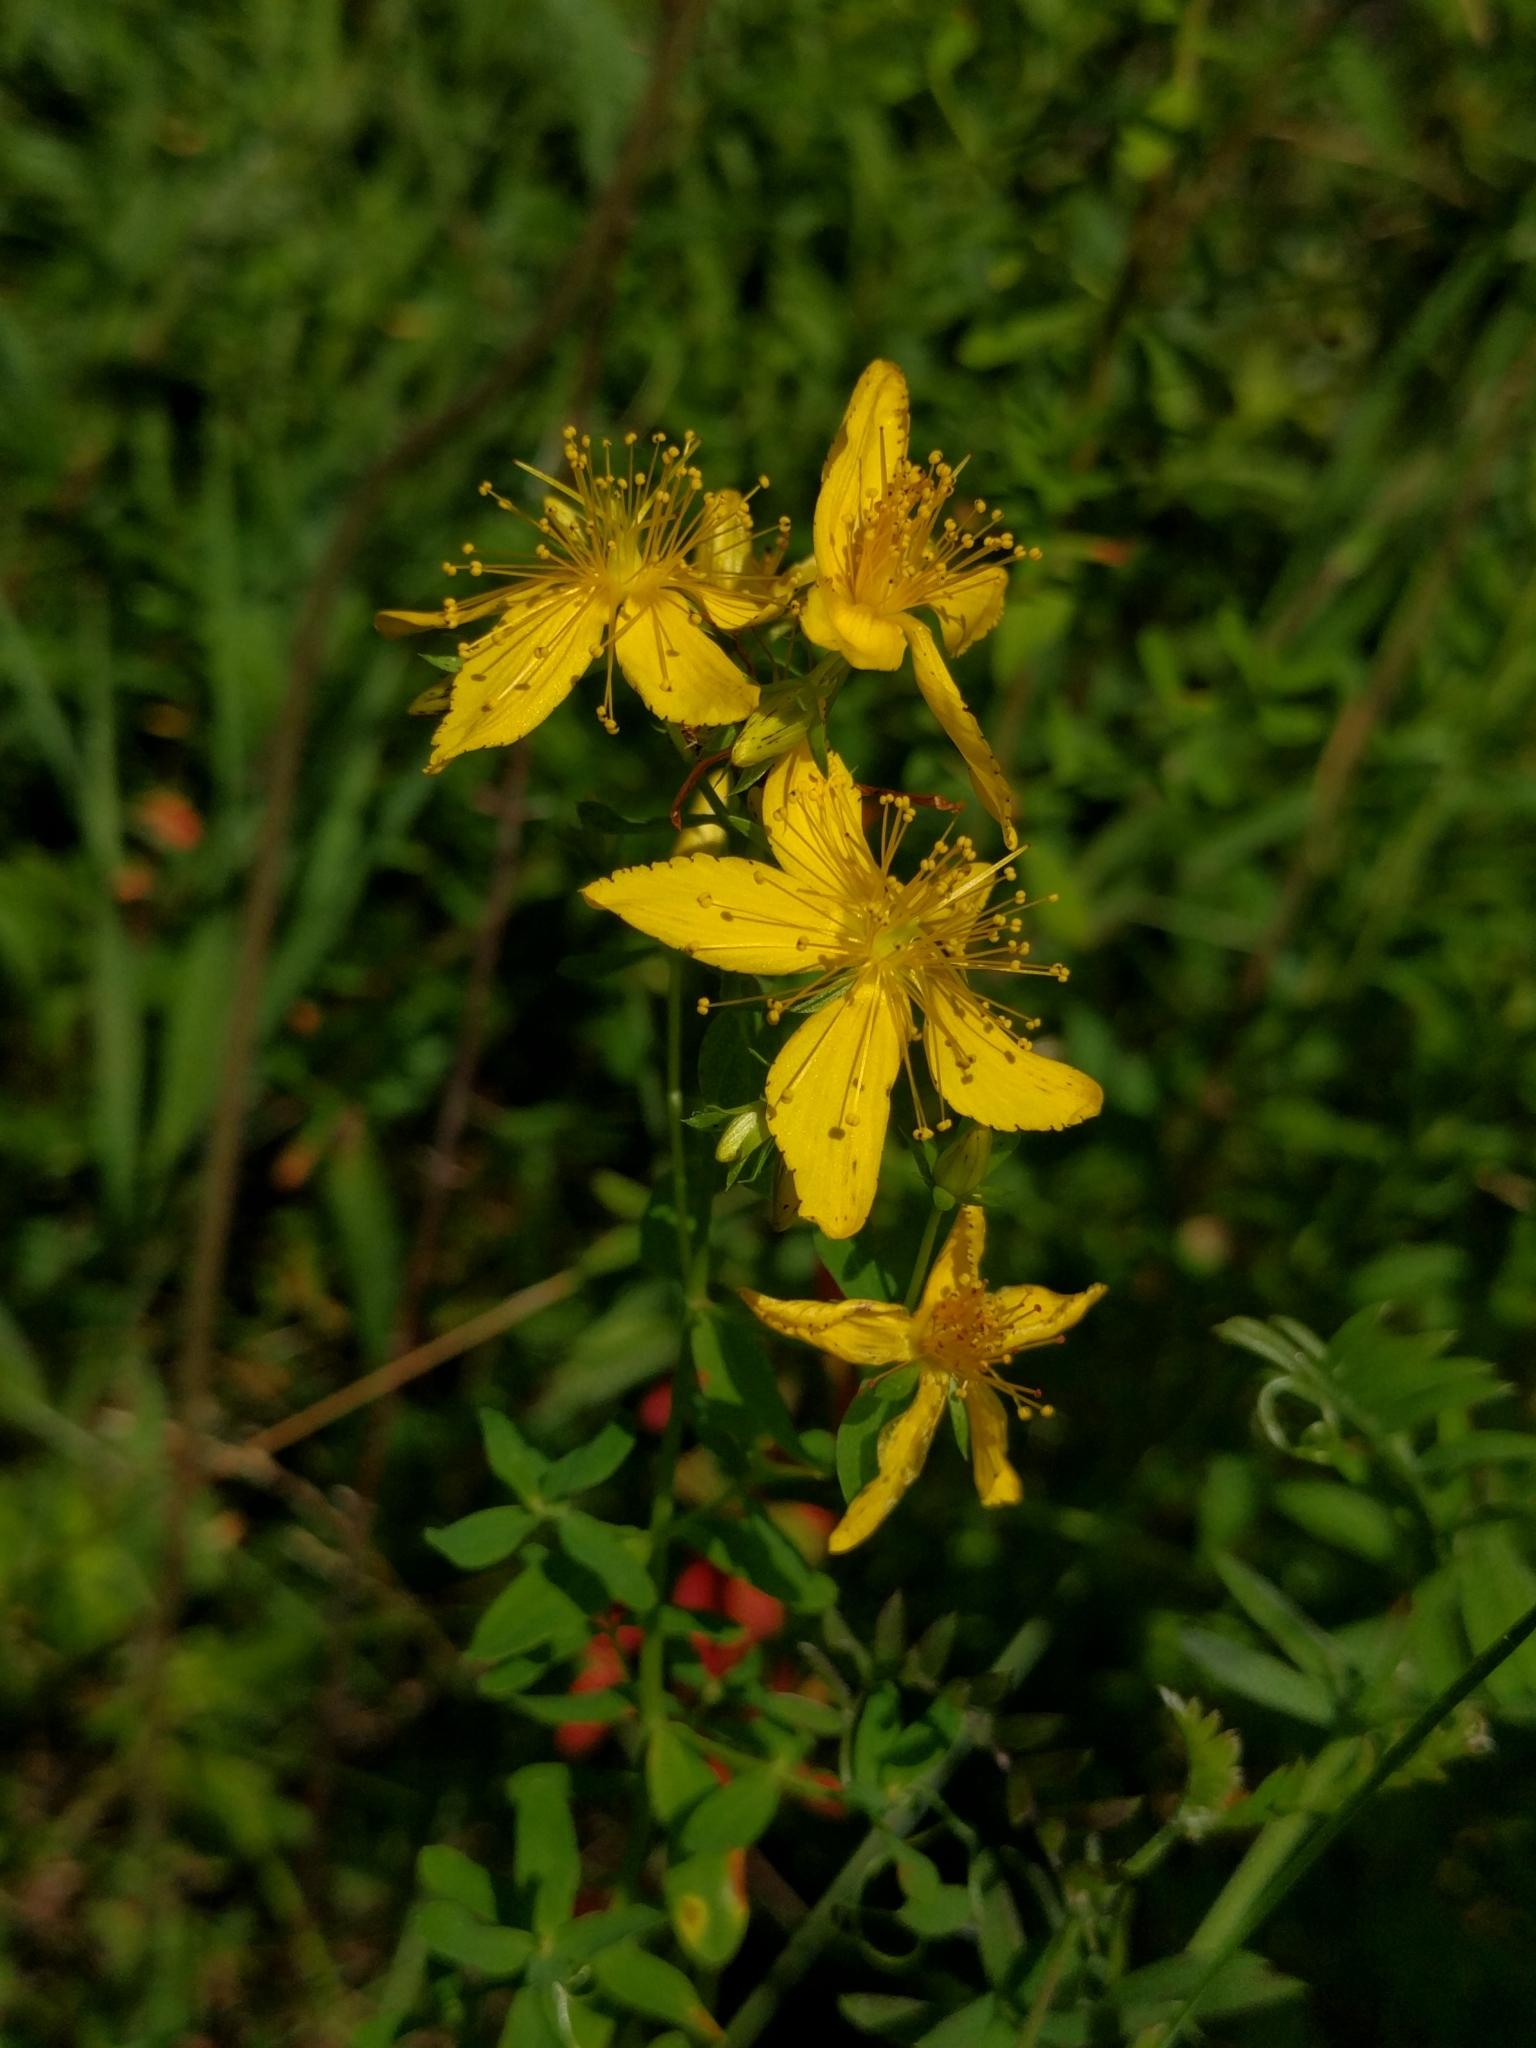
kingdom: Plantae
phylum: Tracheophyta
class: Magnoliopsida
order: Malpighiales
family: Hypericaceae
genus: Hypericum
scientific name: Hypericum perforatum
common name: Common st. johnswort
